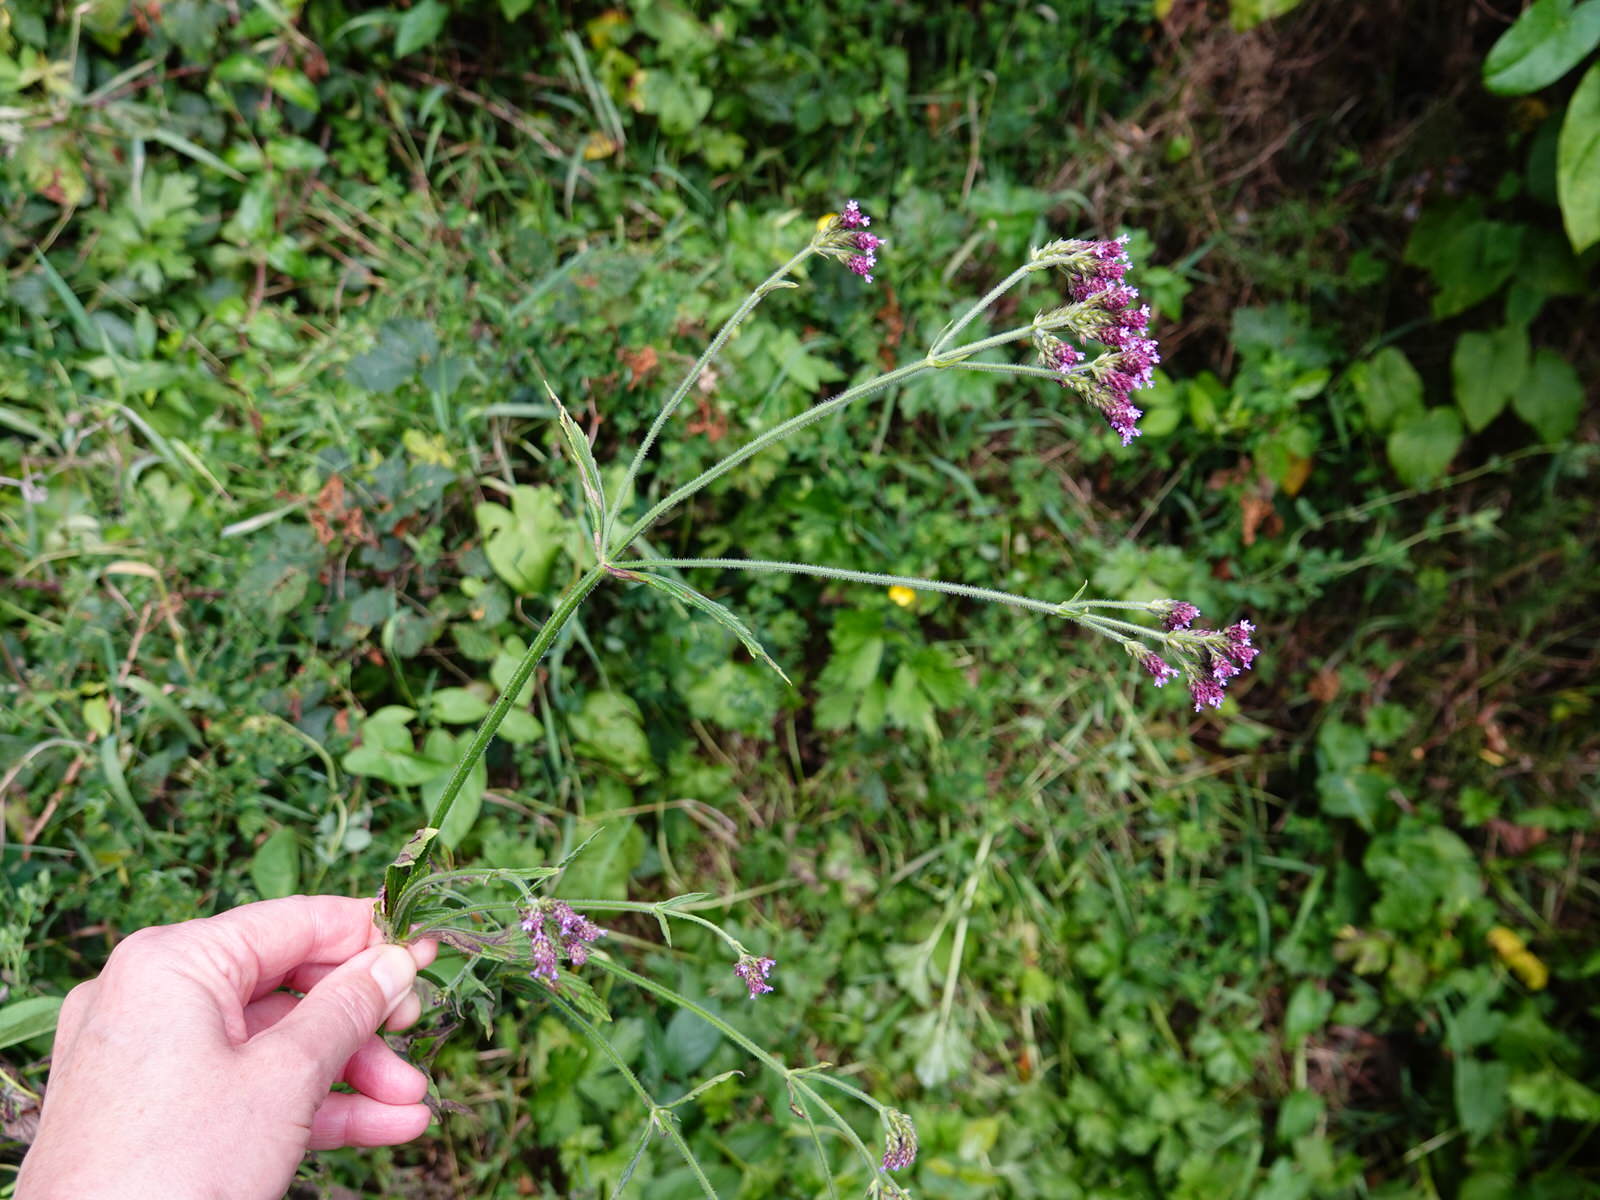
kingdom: Plantae
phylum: Tracheophyta
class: Magnoliopsida
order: Lamiales
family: Verbenaceae
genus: Verbena
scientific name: Verbena incompta
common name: Purpletop vervain
